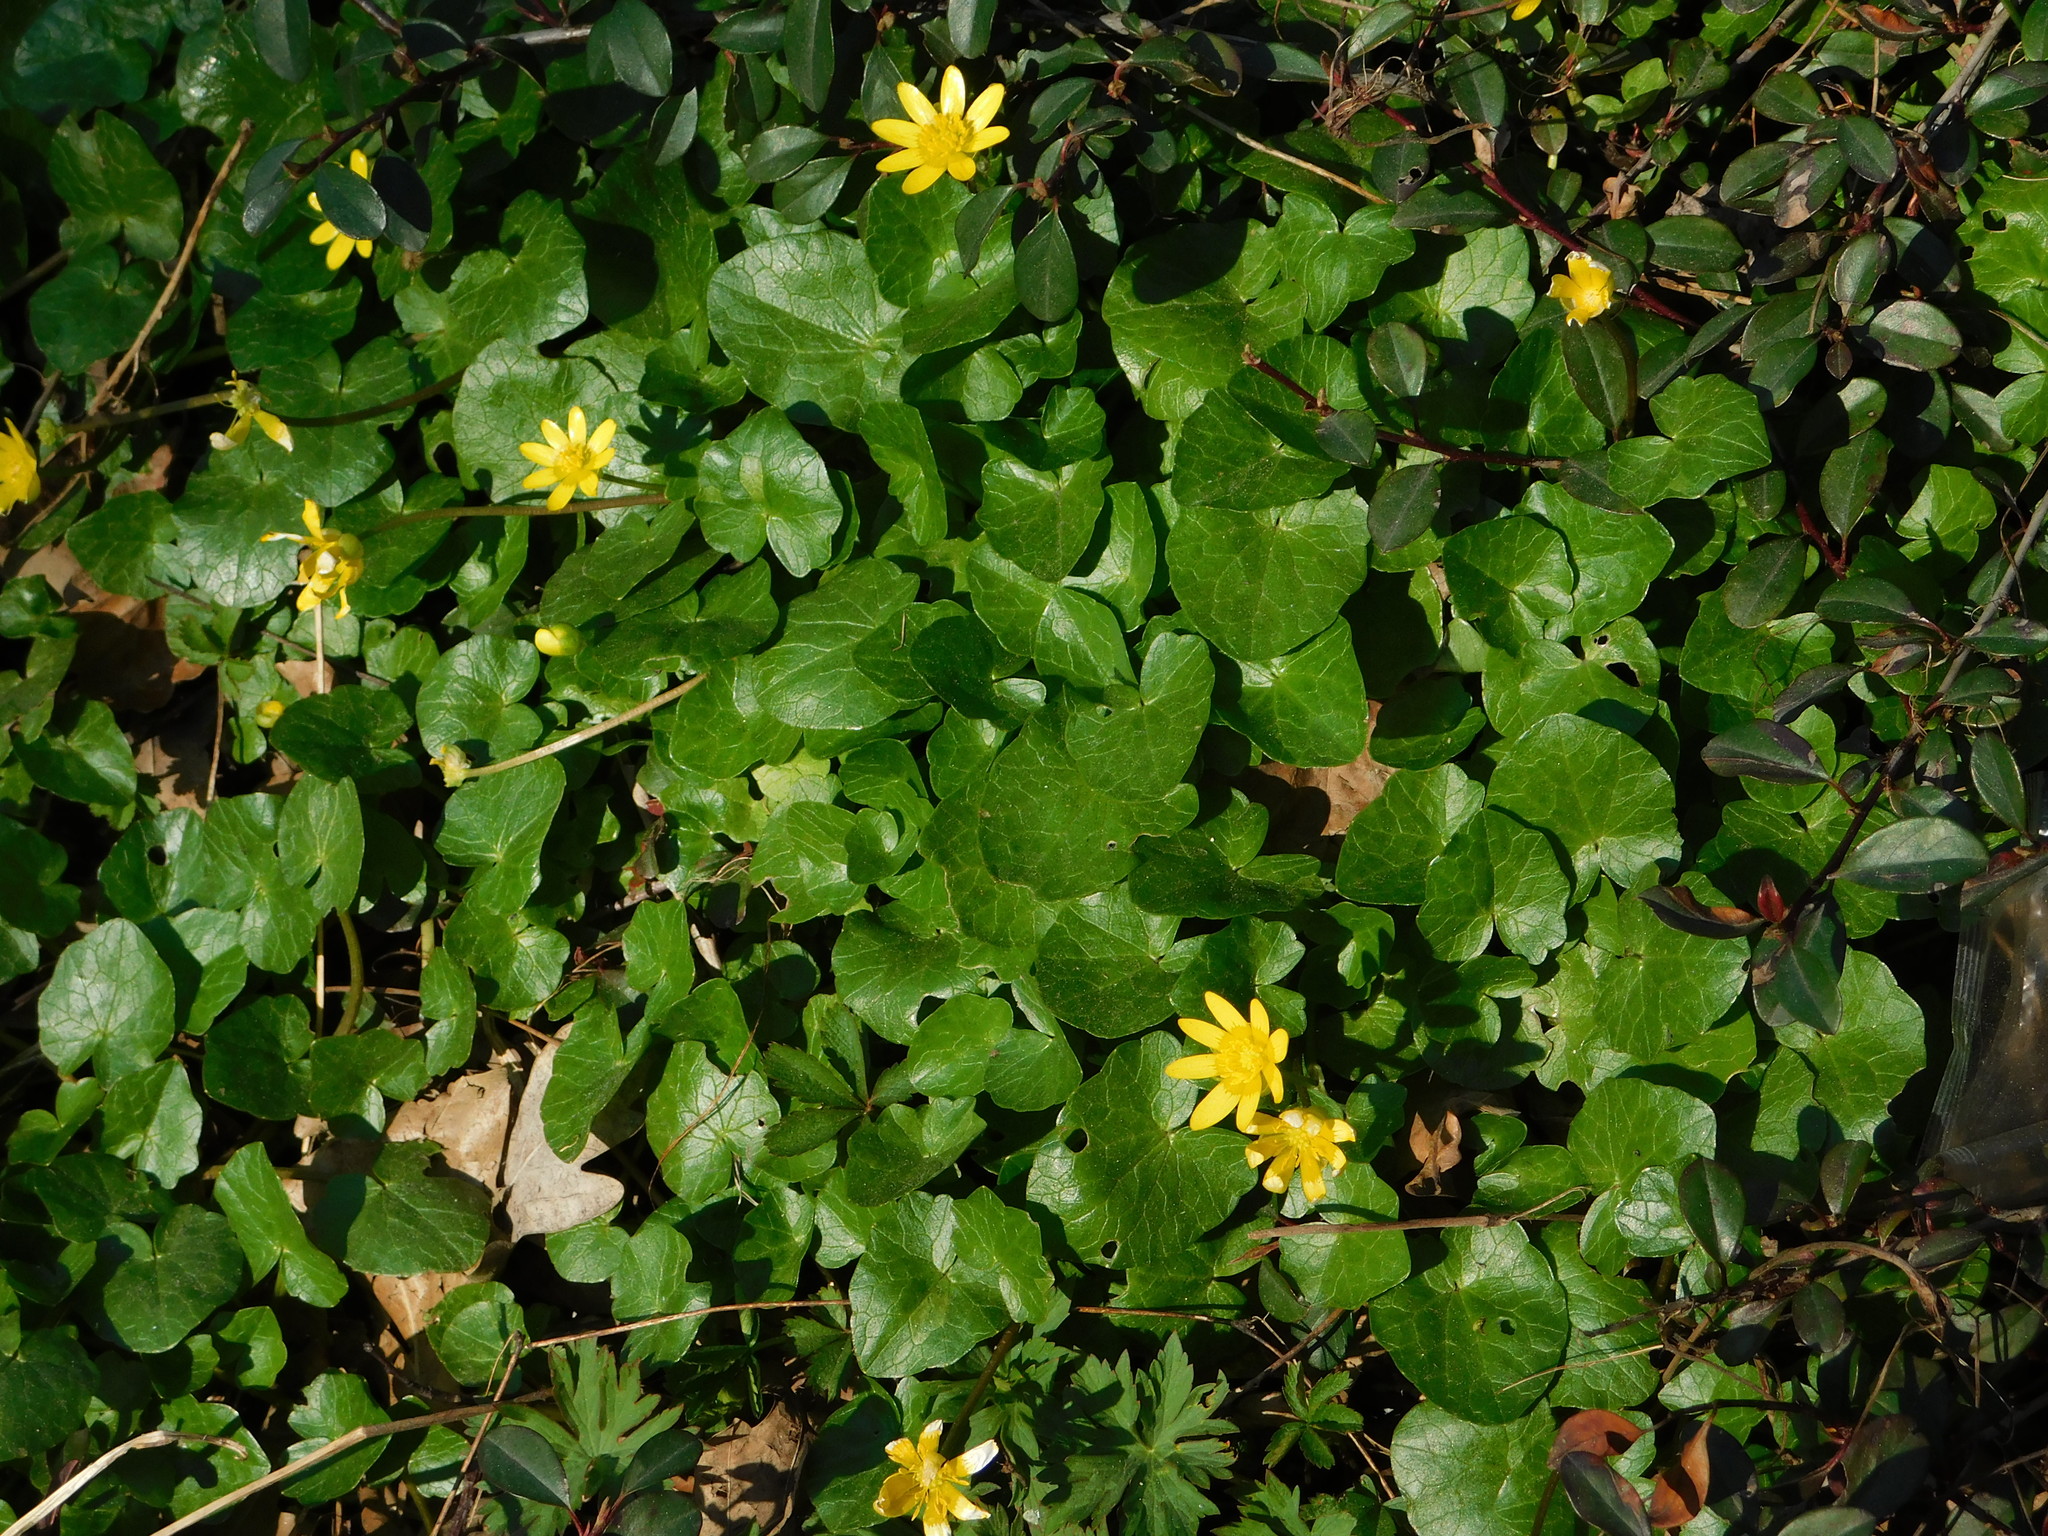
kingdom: Plantae
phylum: Tracheophyta
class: Magnoliopsida
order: Ranunculales
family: Ranunculaceae
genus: Ficaria
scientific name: Ficaria verna
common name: Lesser celandine
